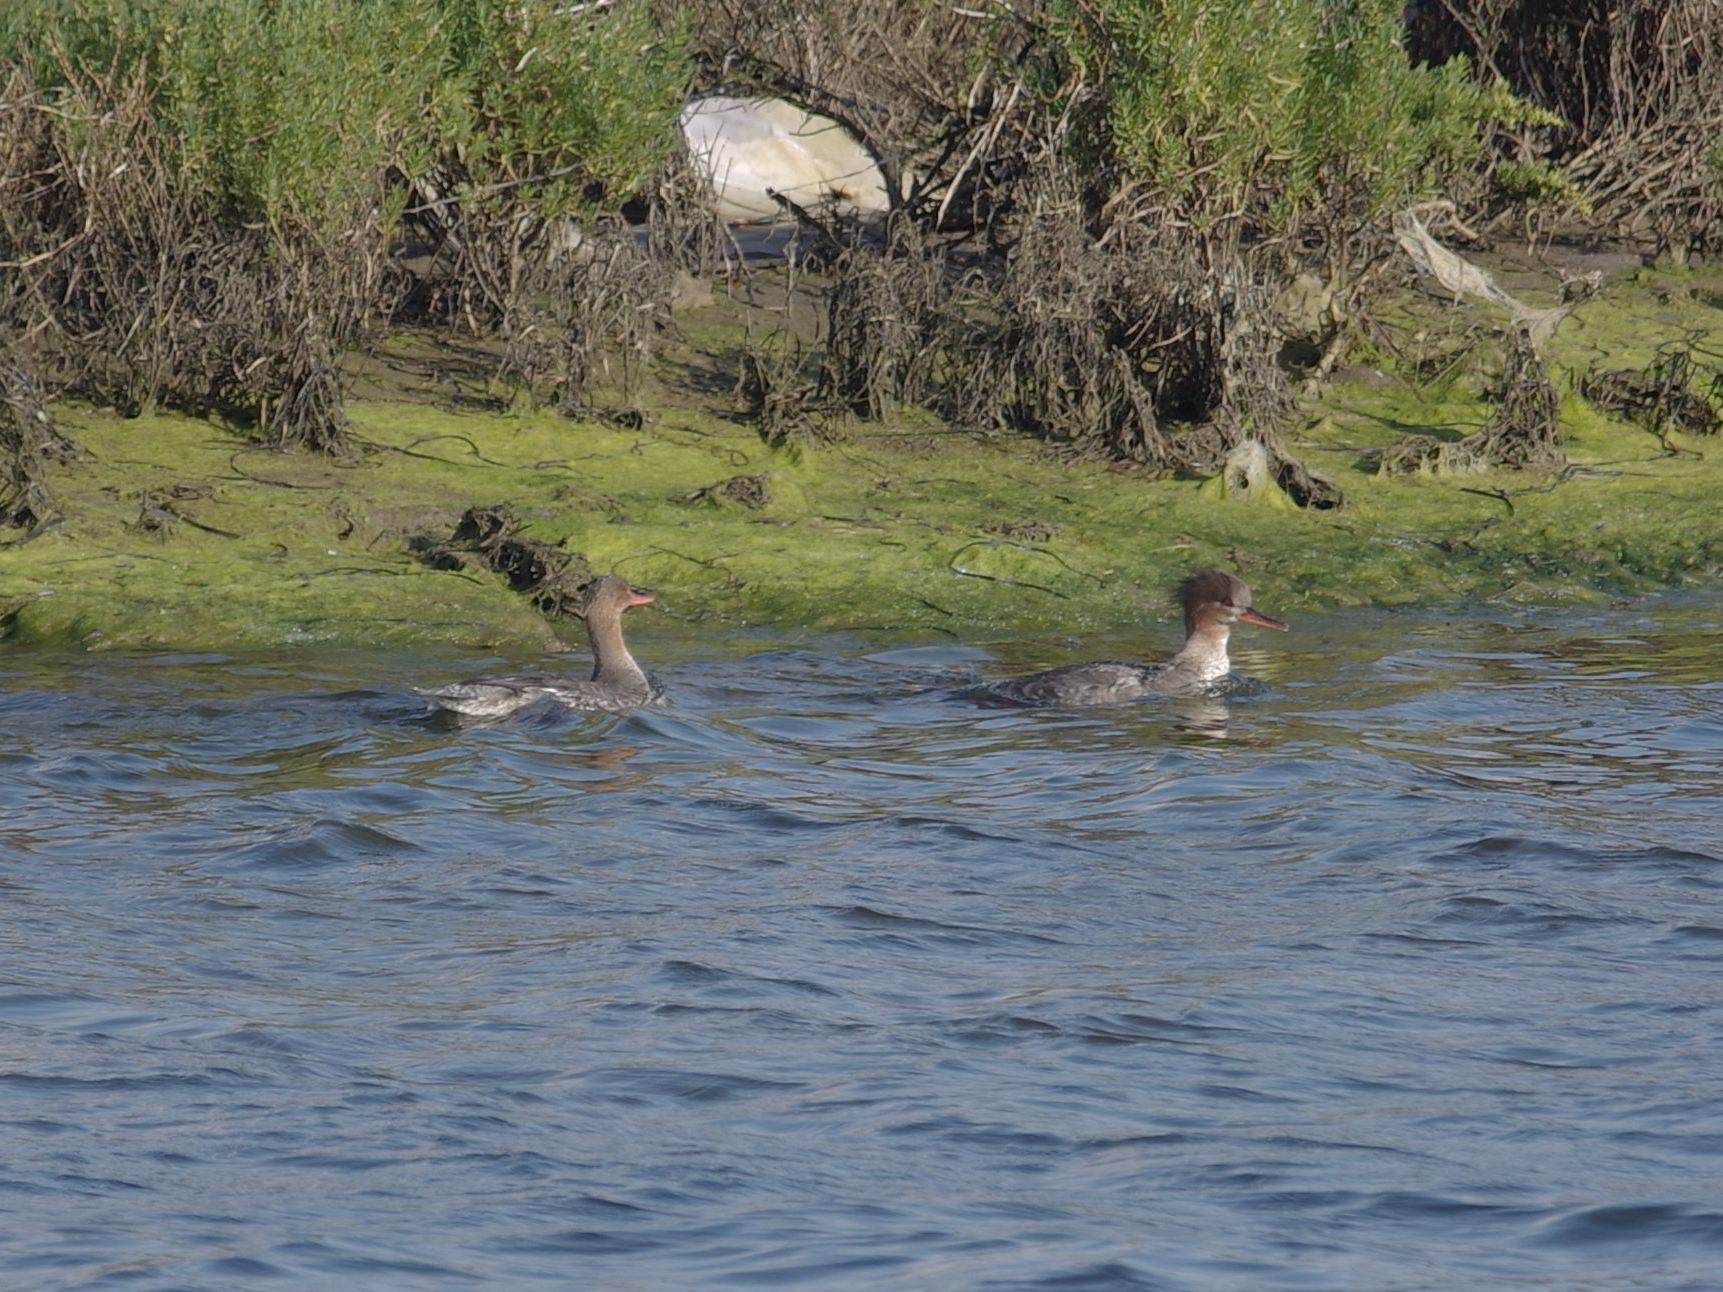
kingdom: Animalia
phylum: Chordata
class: Aves
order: Anseriformes
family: Anatidae
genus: Mergus
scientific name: Mergus serrator
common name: Red-breasted merganser
